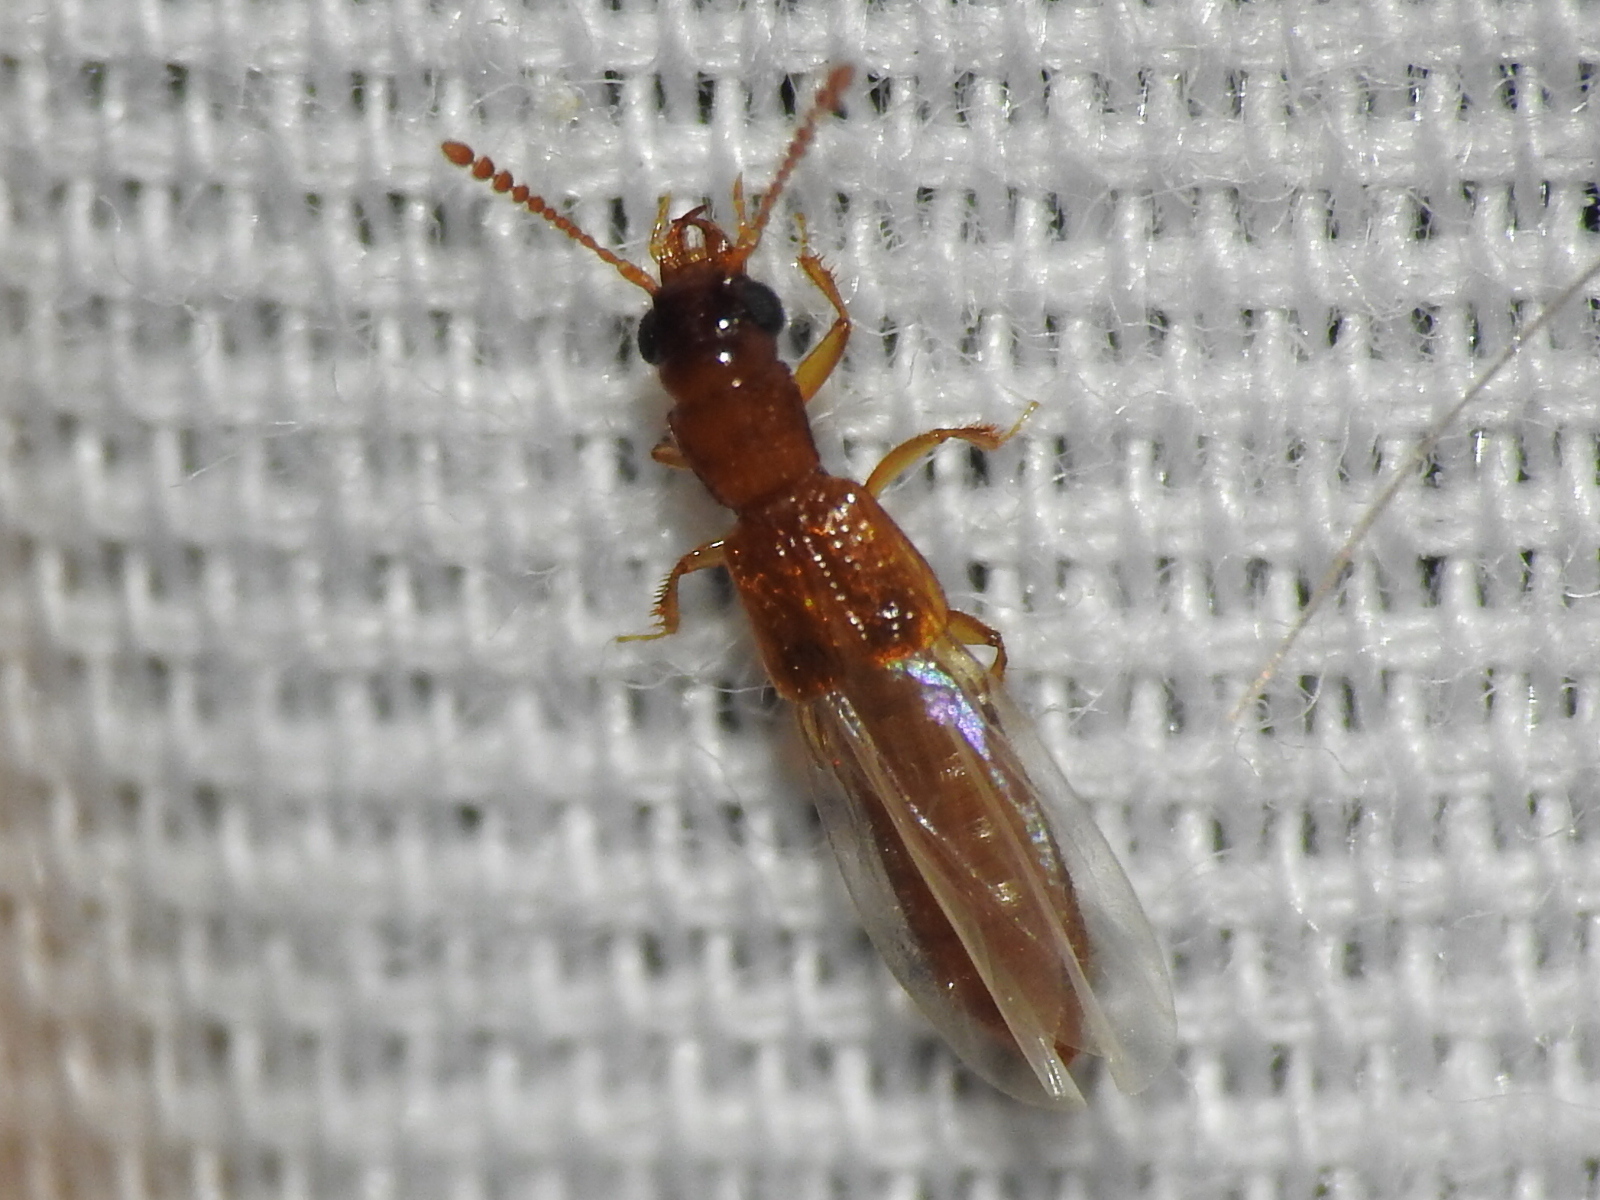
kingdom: Animalia
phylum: Arthropoda
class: Insecta
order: Coleoptera
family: Staphylinidae
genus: Manda
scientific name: Manda nearctica
